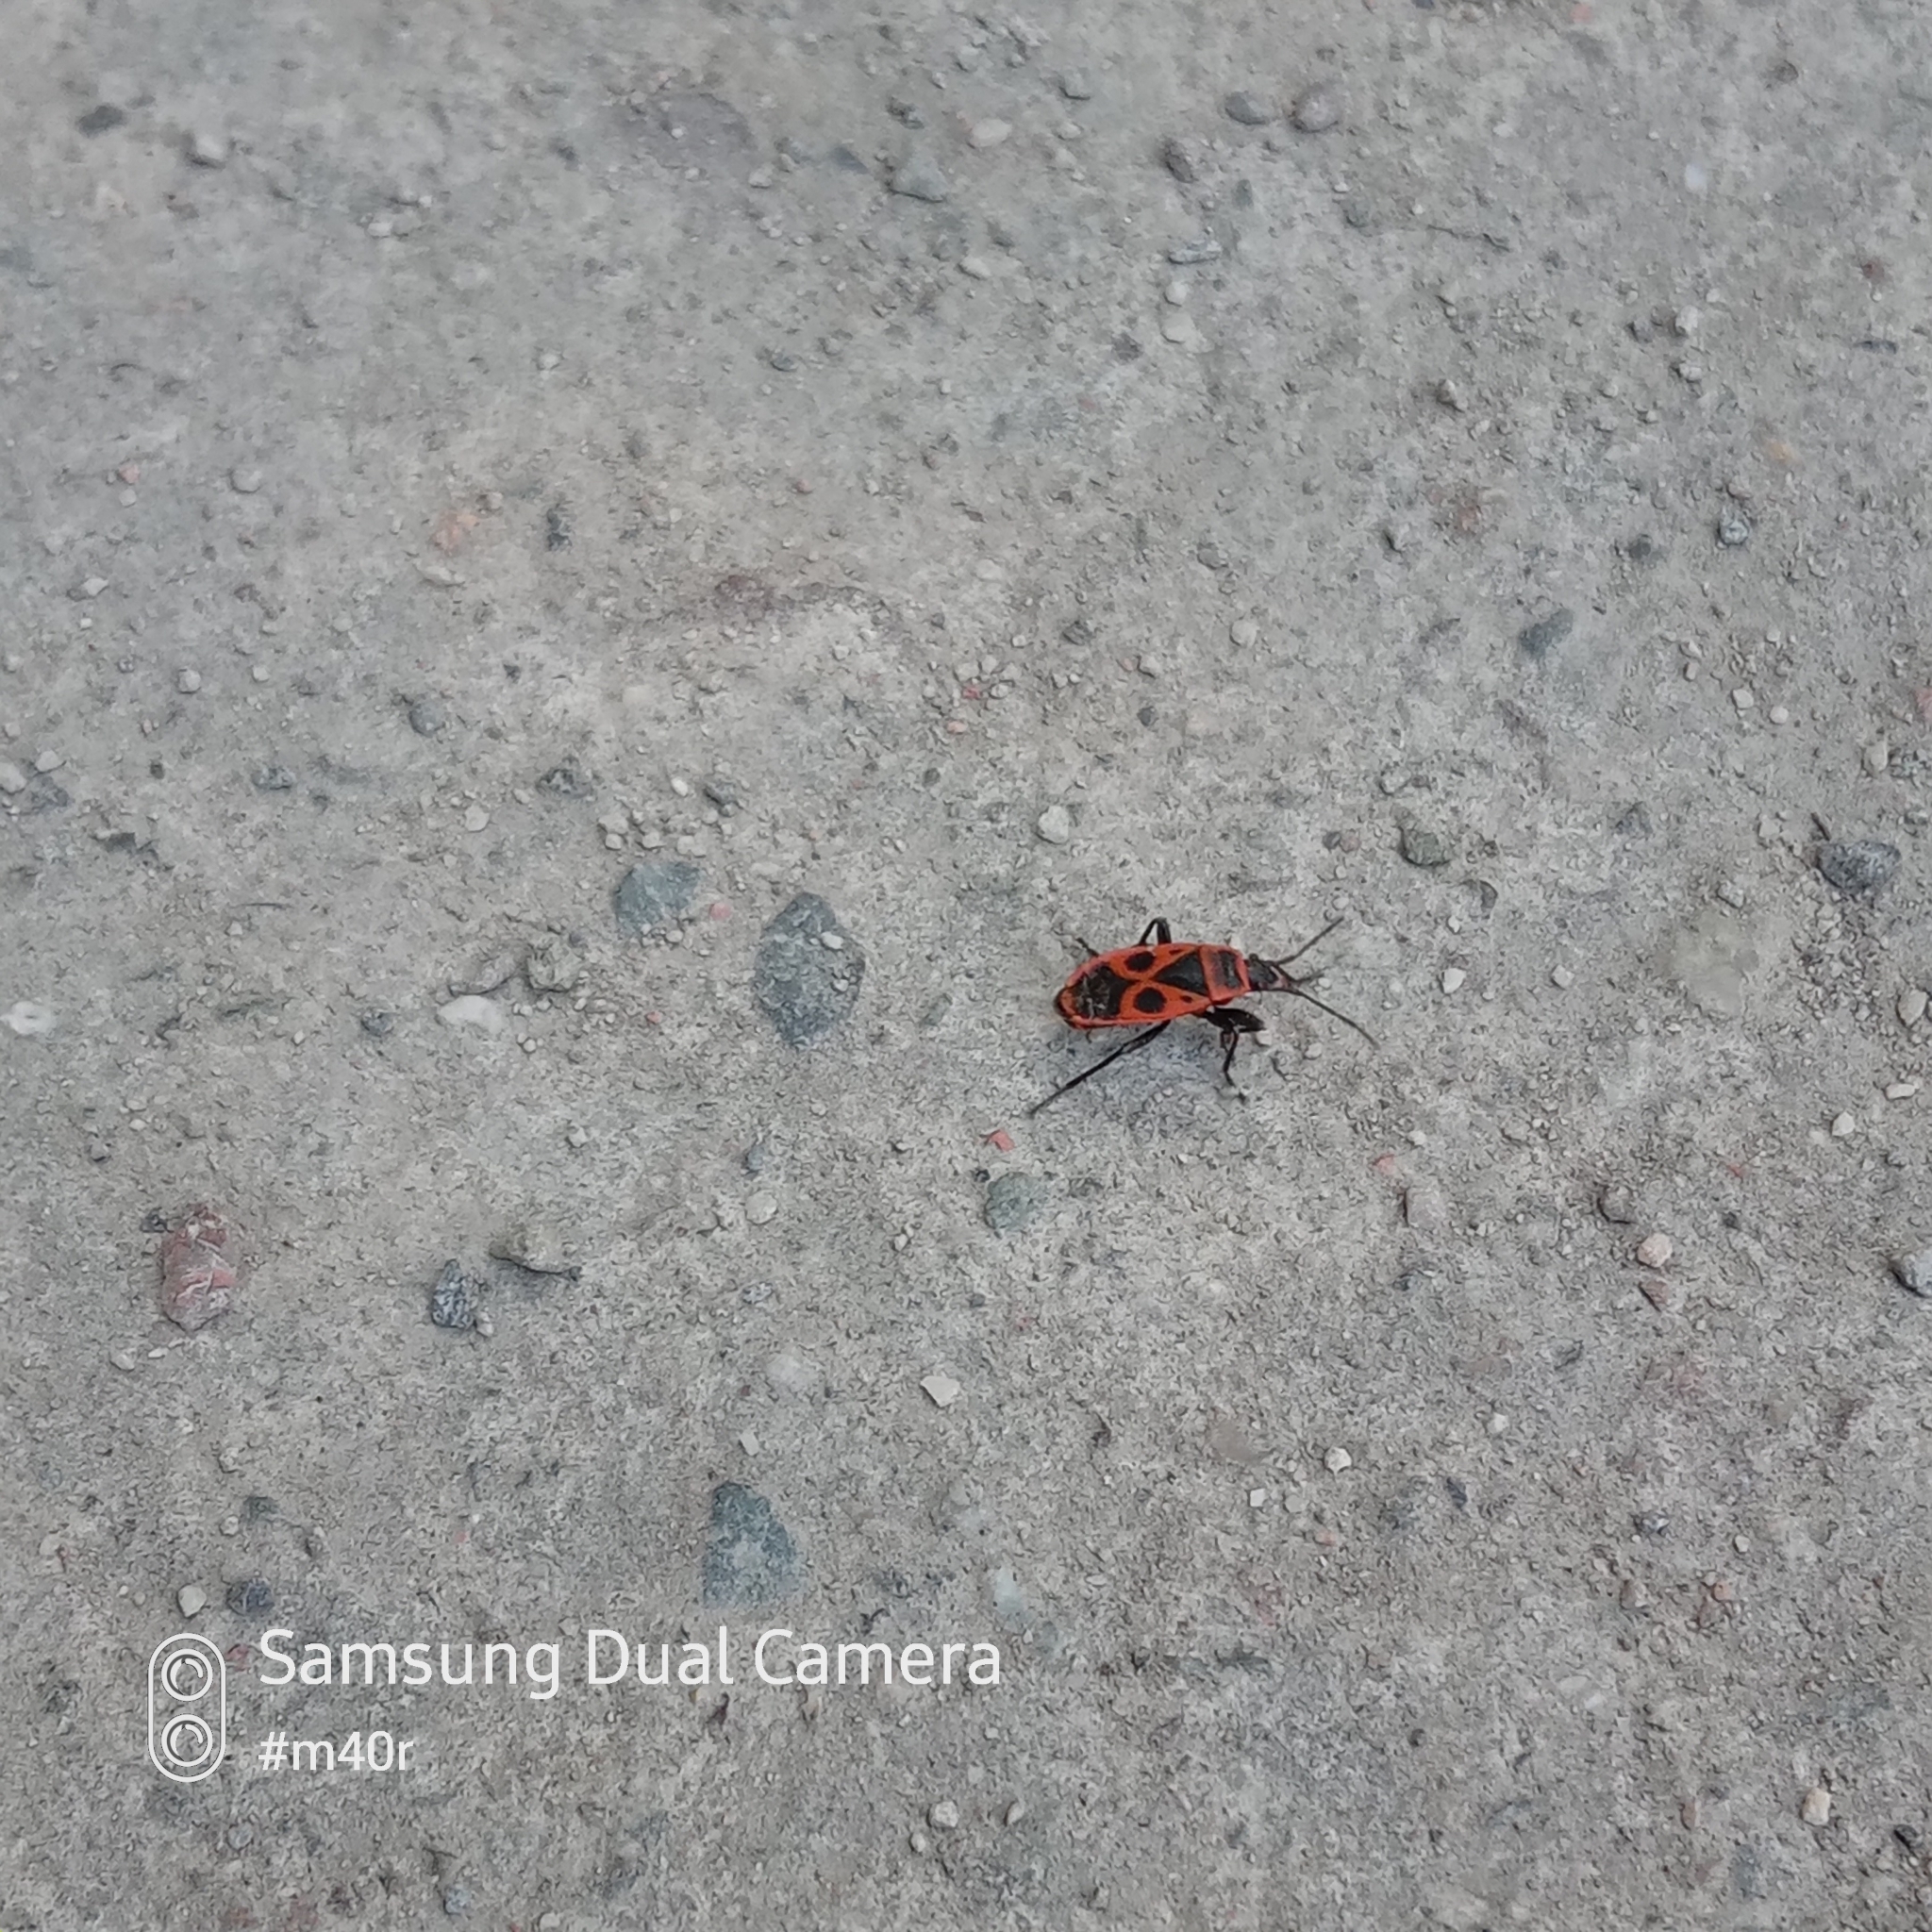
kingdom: Animalia
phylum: Arthropoda
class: Insecta
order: Hemiptera
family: Pyrrhocoridae
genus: Pyrrhocoris
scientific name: Pyrrhocoris apterus
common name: Firebug
